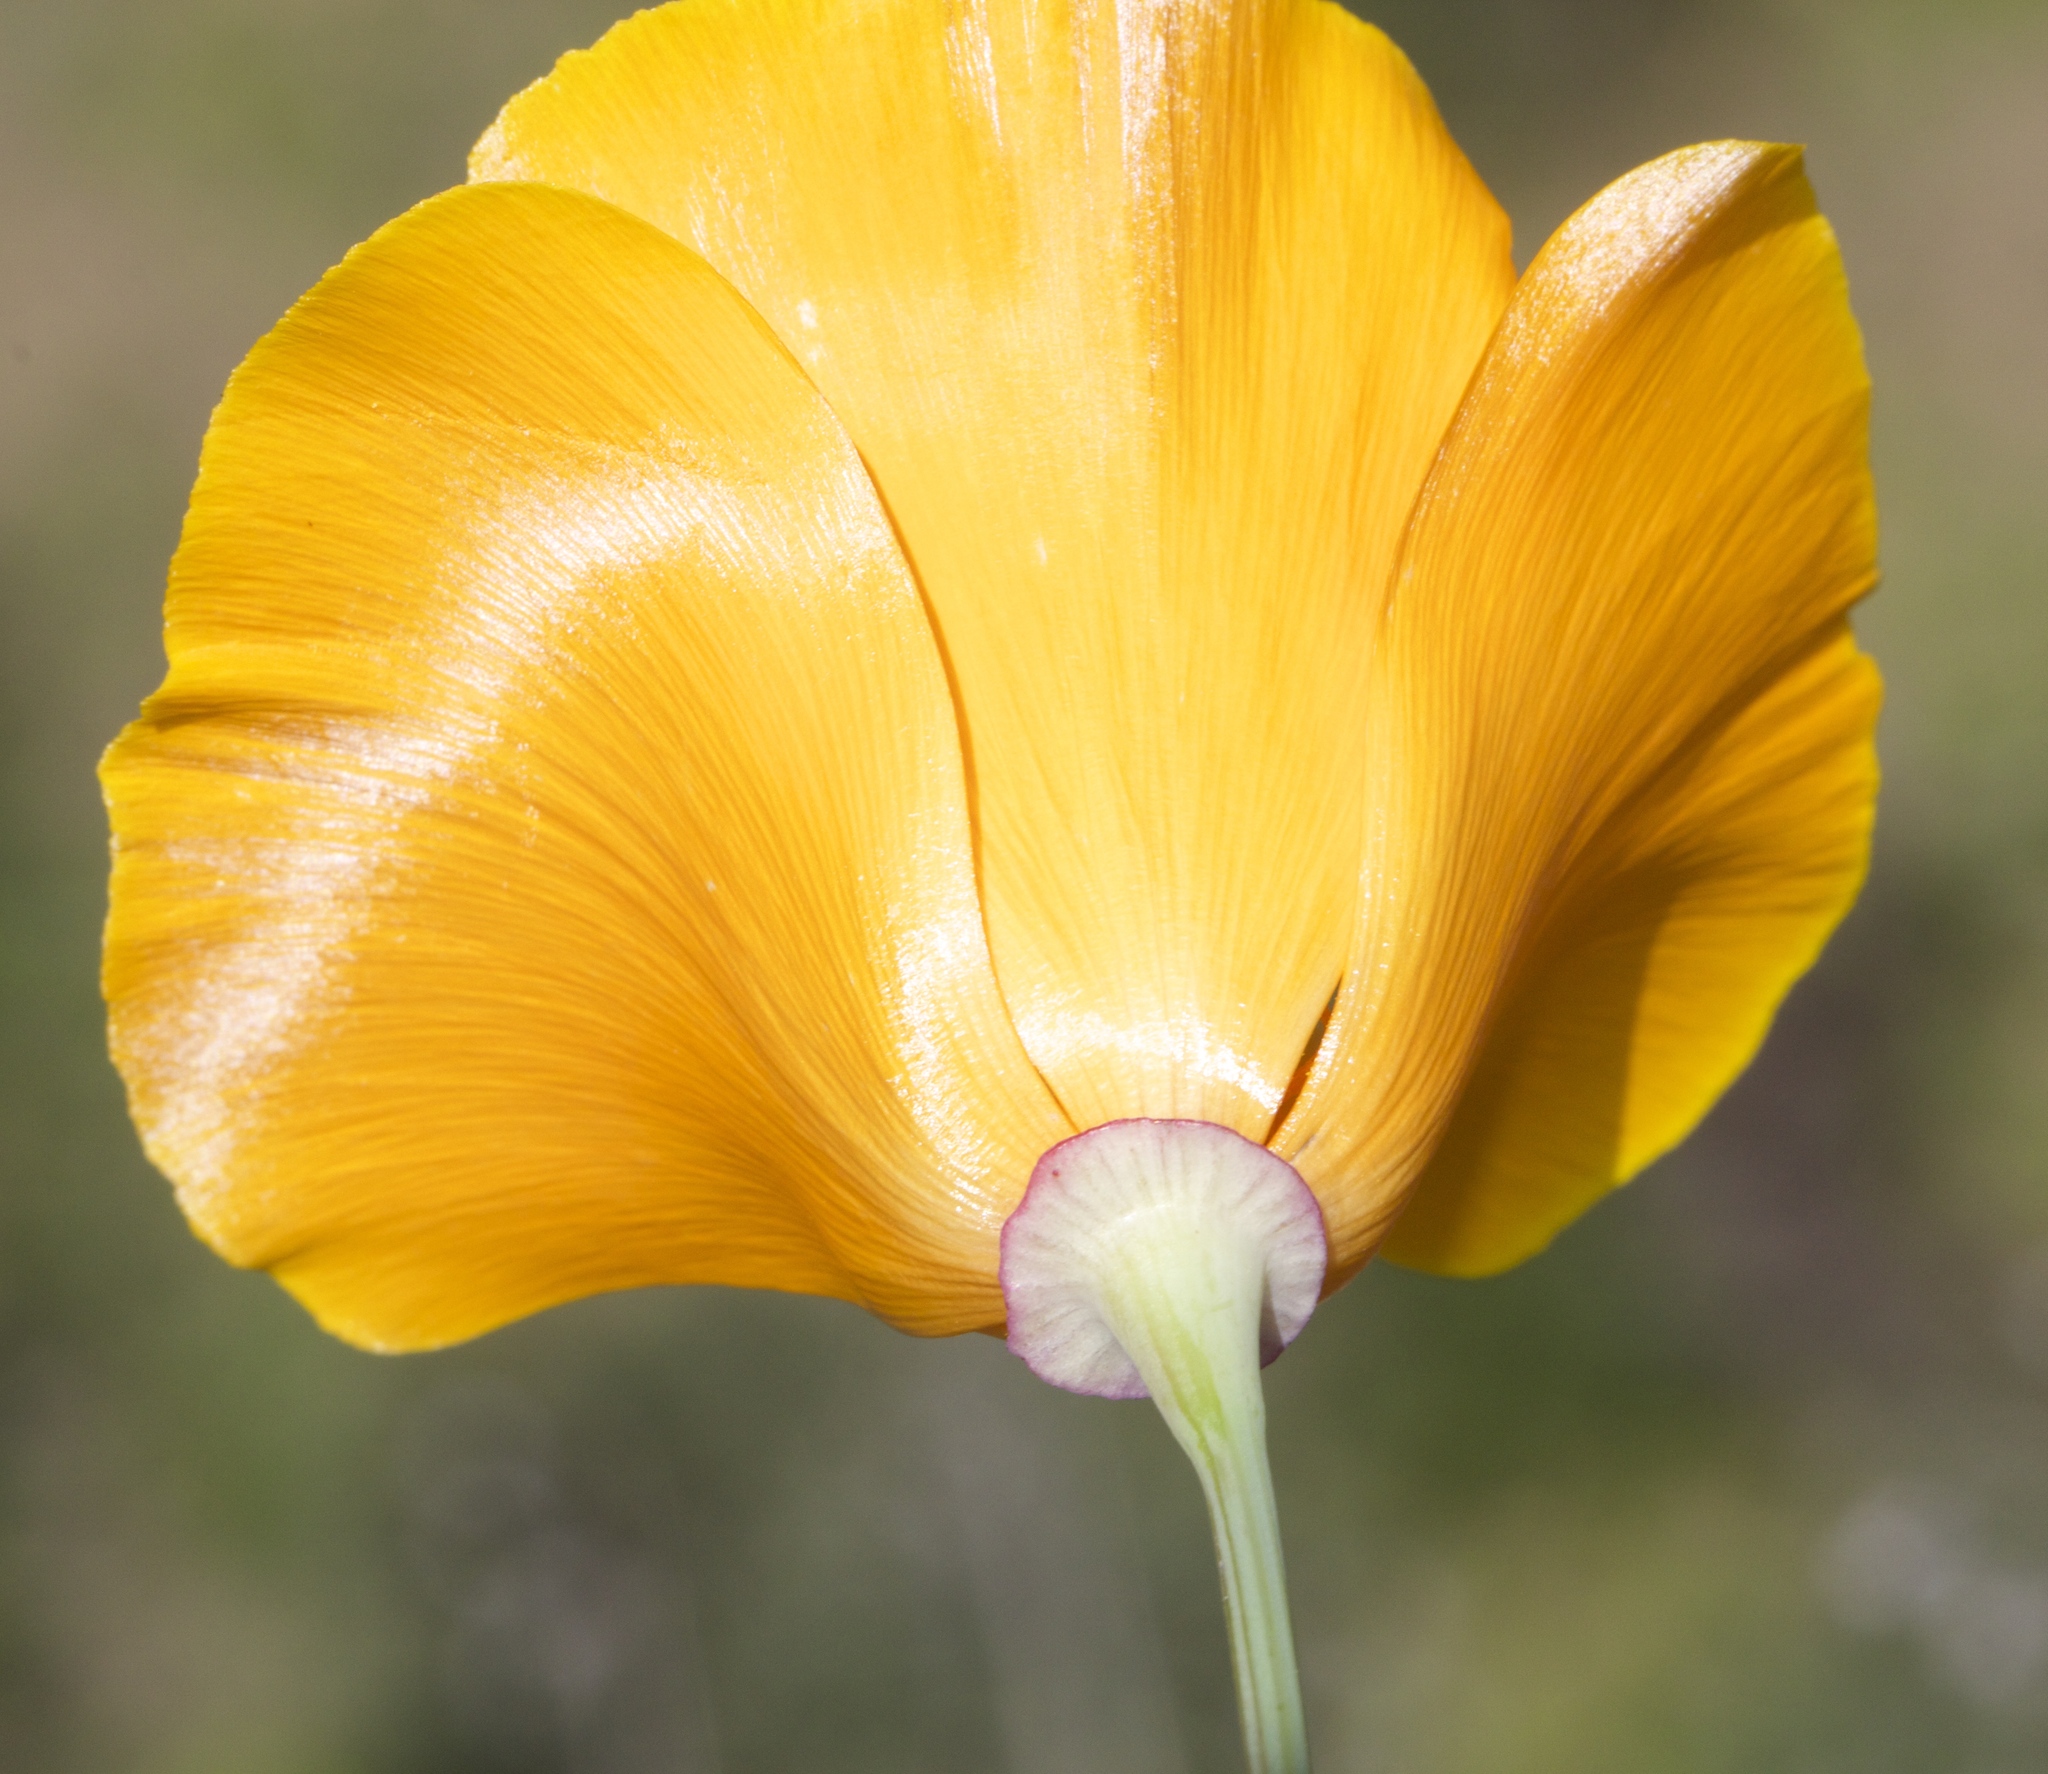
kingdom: Plantae
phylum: Tracheophyta
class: Magnoliopsida
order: Ranunculales
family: Papaveraceae
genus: Eschscholzia
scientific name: Eschscholzia californica
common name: California poppy
